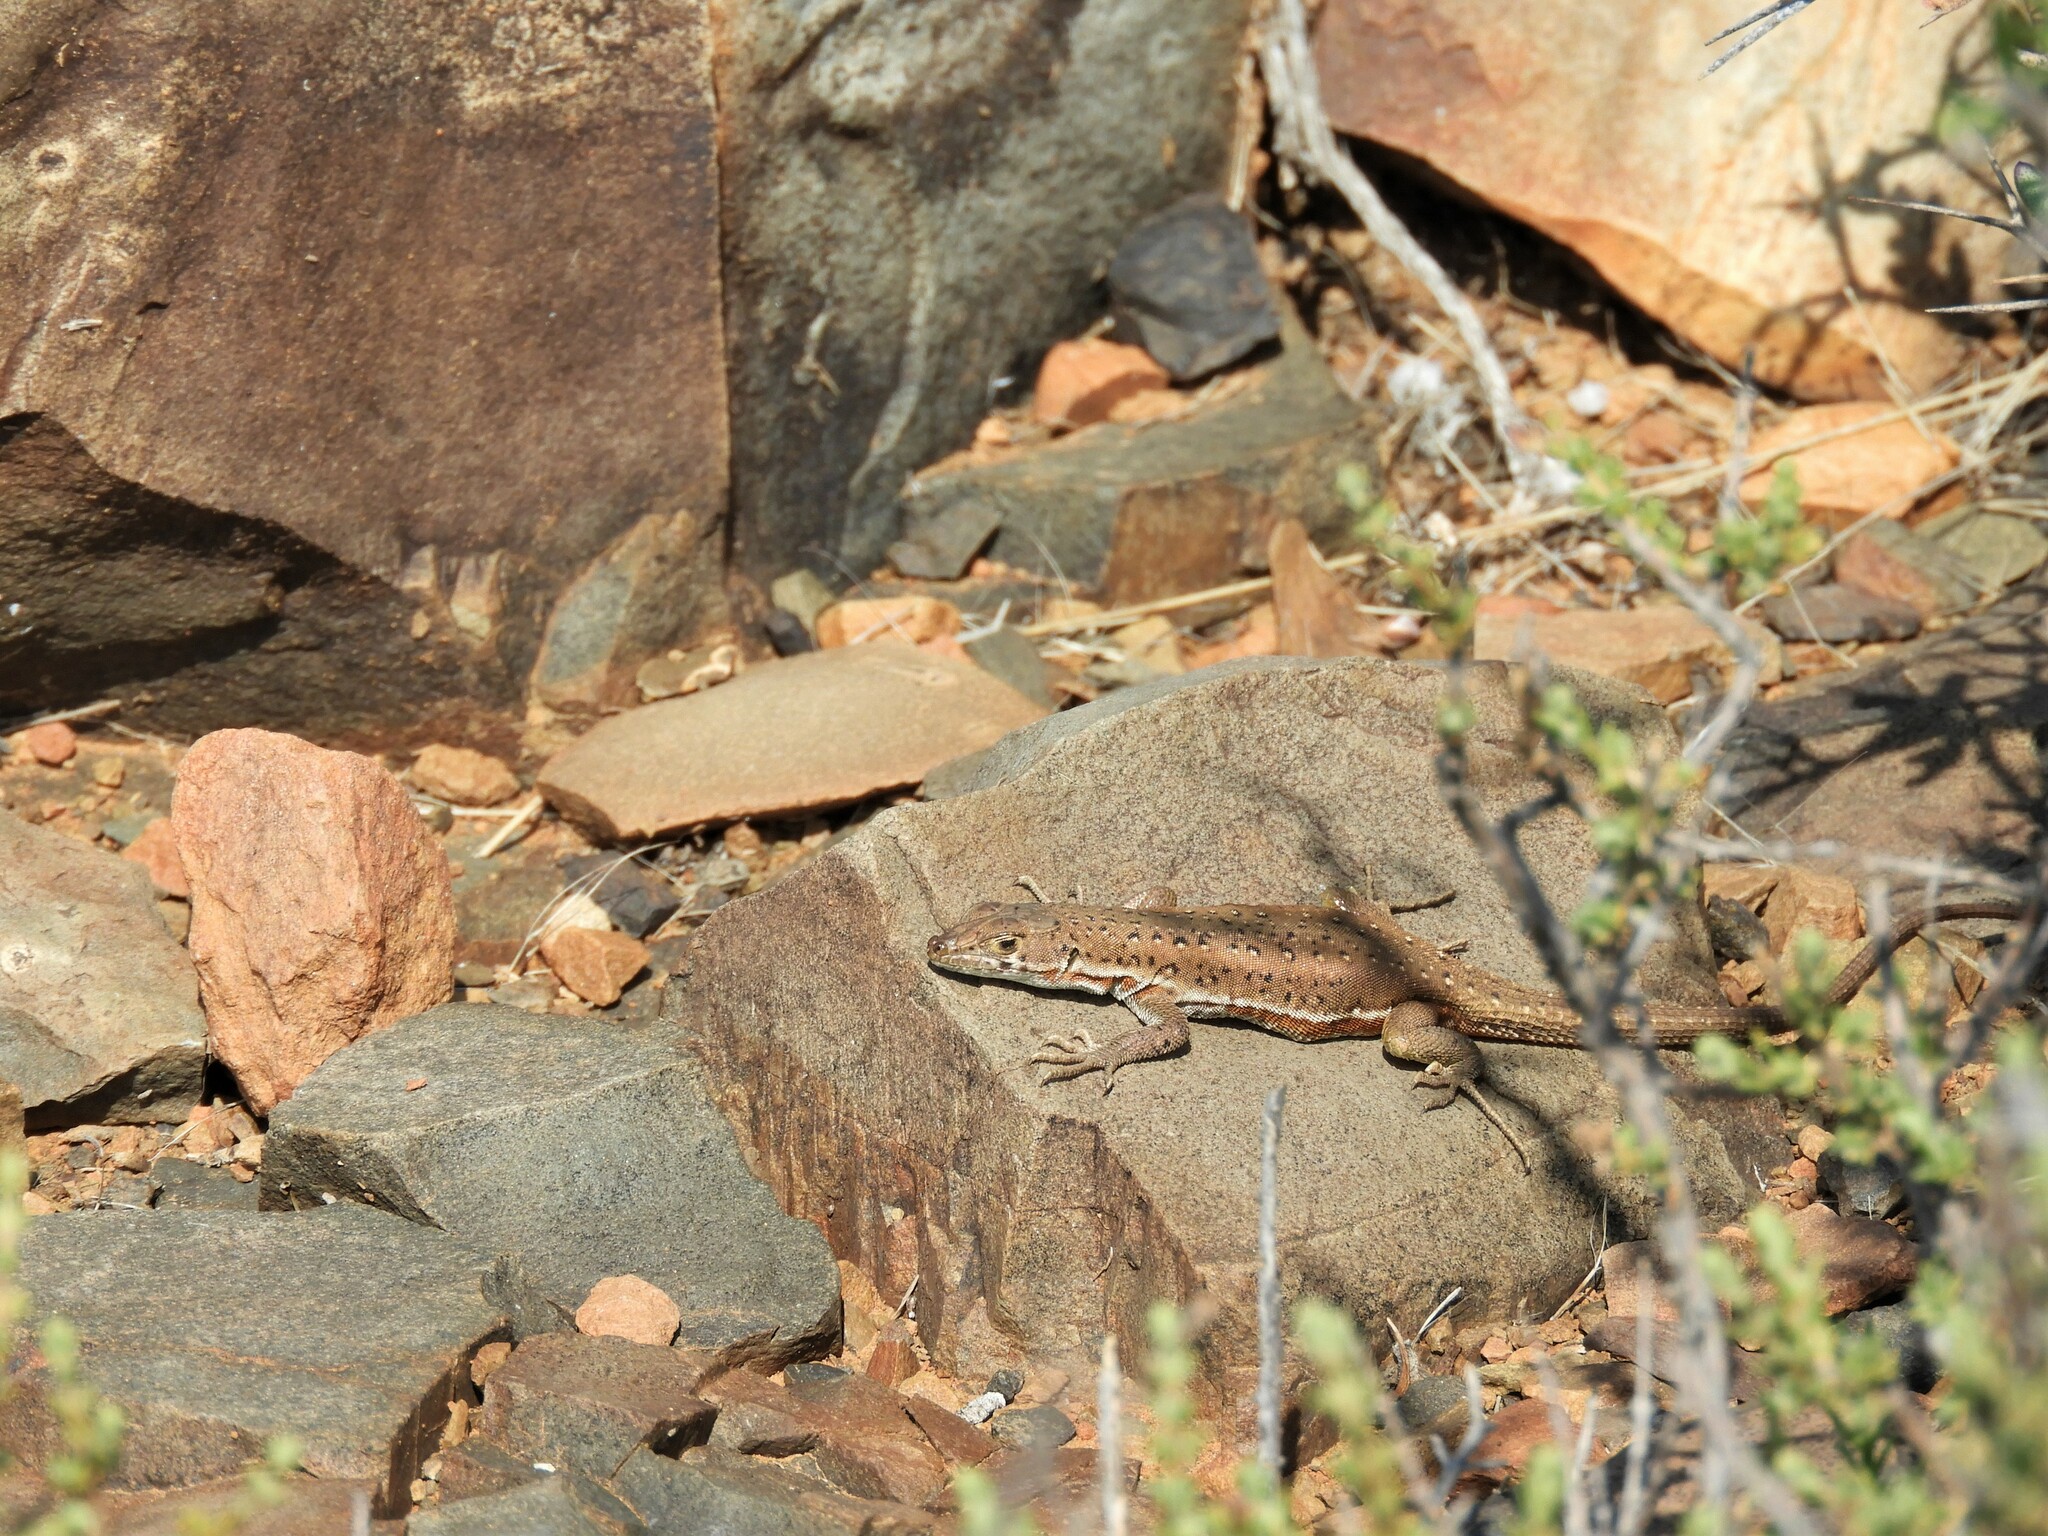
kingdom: Animalia
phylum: Chordata
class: Squamata
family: Lacertidae
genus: Pedioplanis
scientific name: Pedioplanis lineoocellata
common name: Spotted sand lizard
